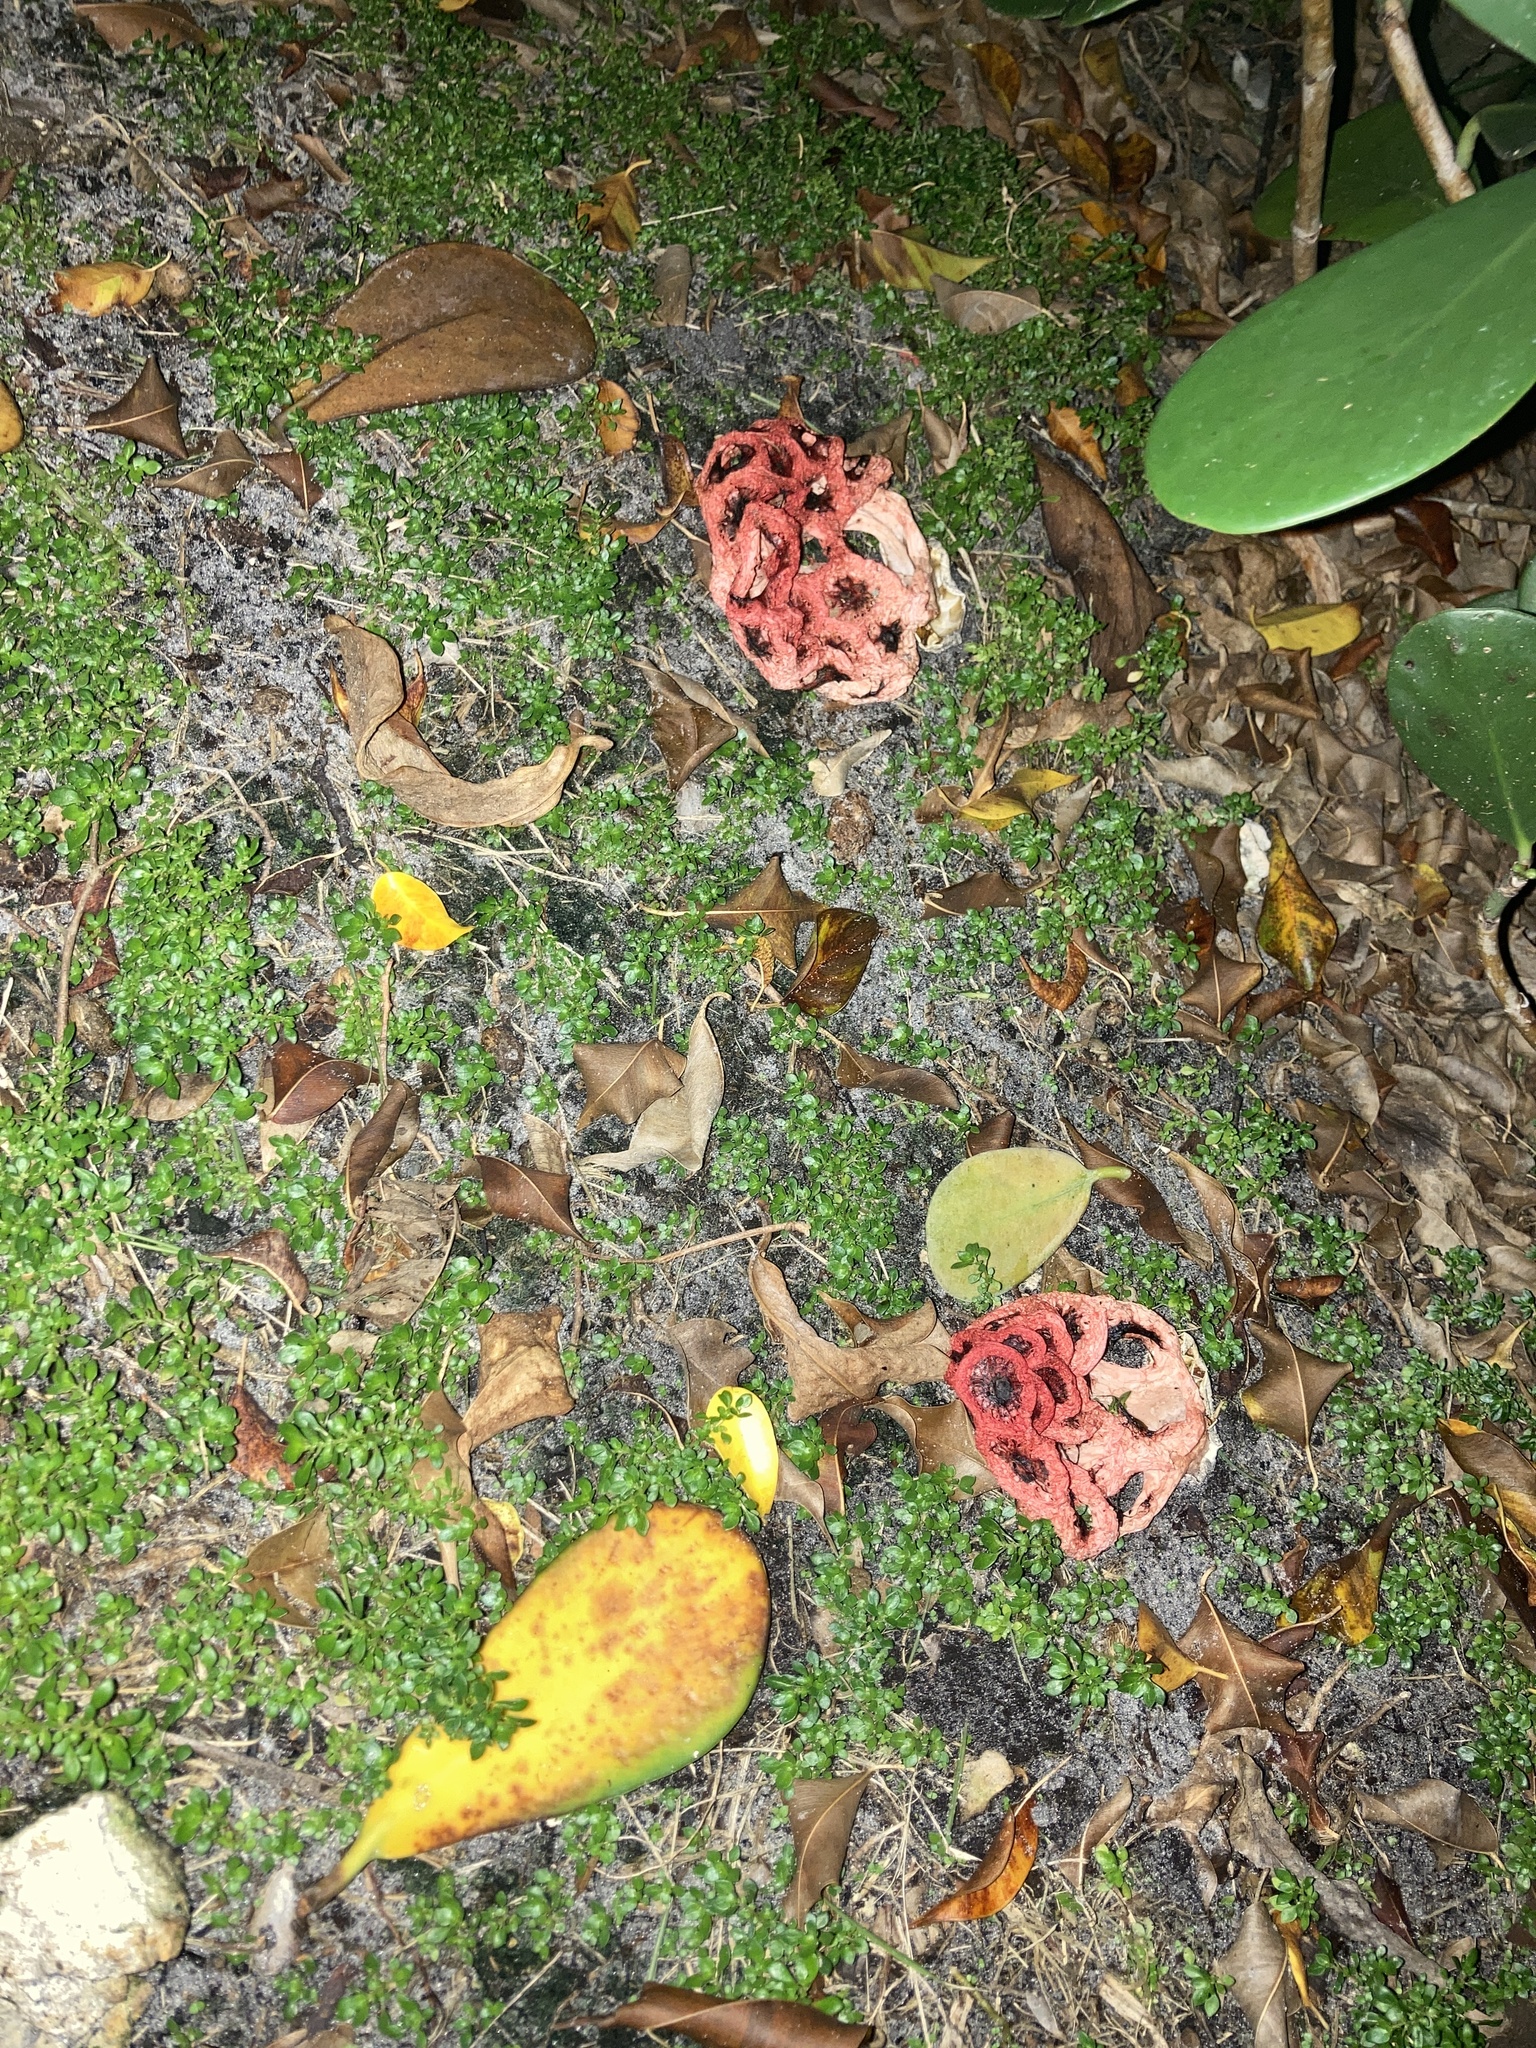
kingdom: Fungi
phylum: Basidiomycota
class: Agaricomycetes
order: Phallales
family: Phallaceae
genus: Clathrus
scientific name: Clathrus crispatus
